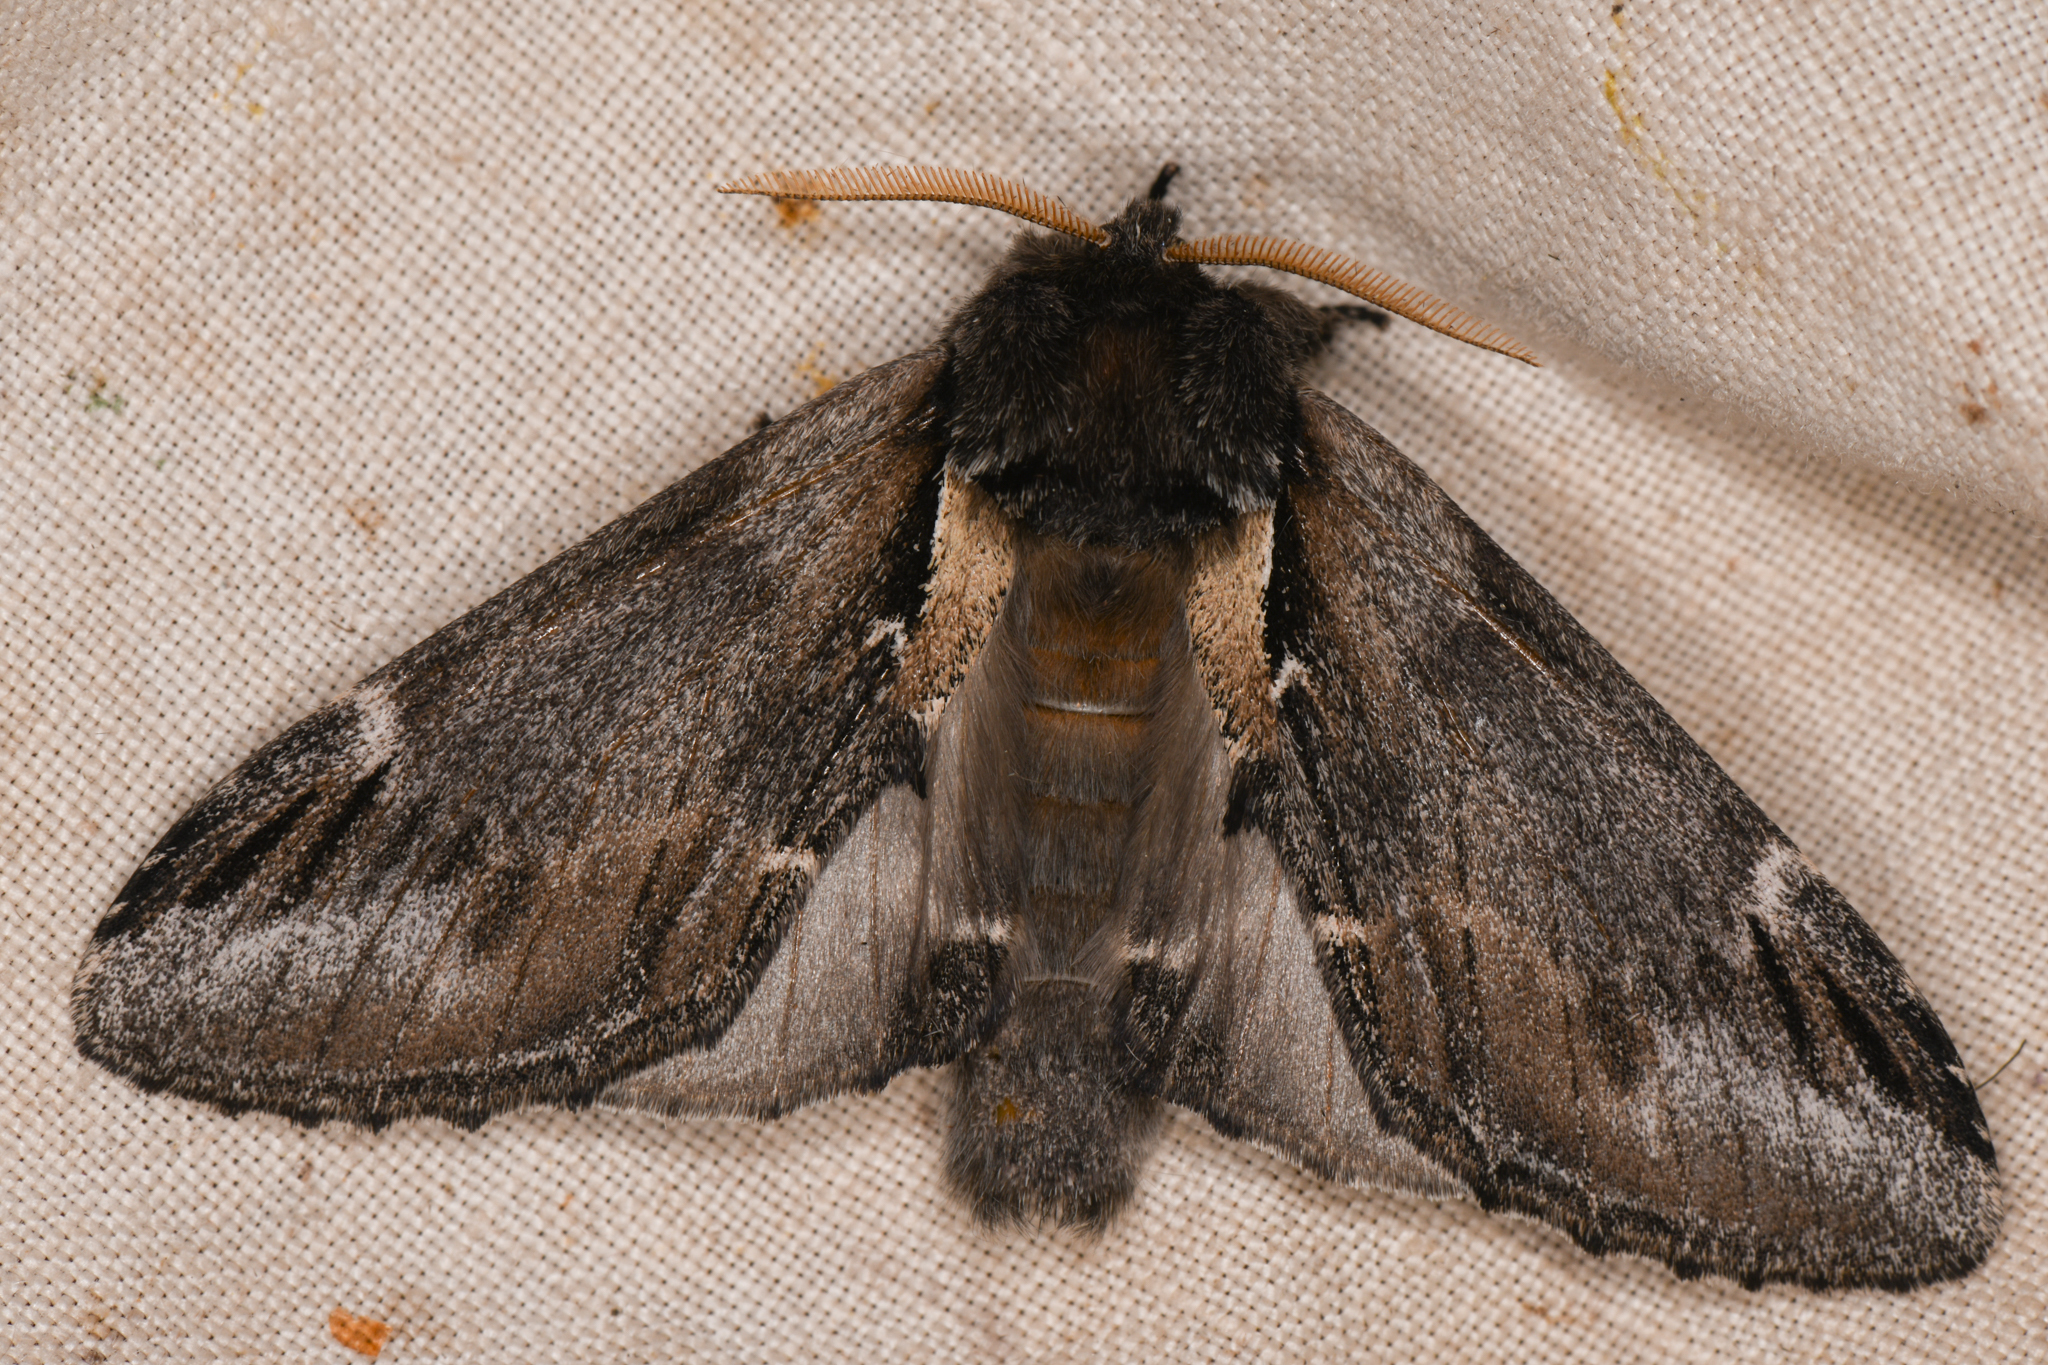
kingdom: Animalia
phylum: Arthropoda
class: Insecta
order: Lepidoptera
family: Notodontidae
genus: Pheosia
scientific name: Pheosia rimosa
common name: Black-rimmed prominent
